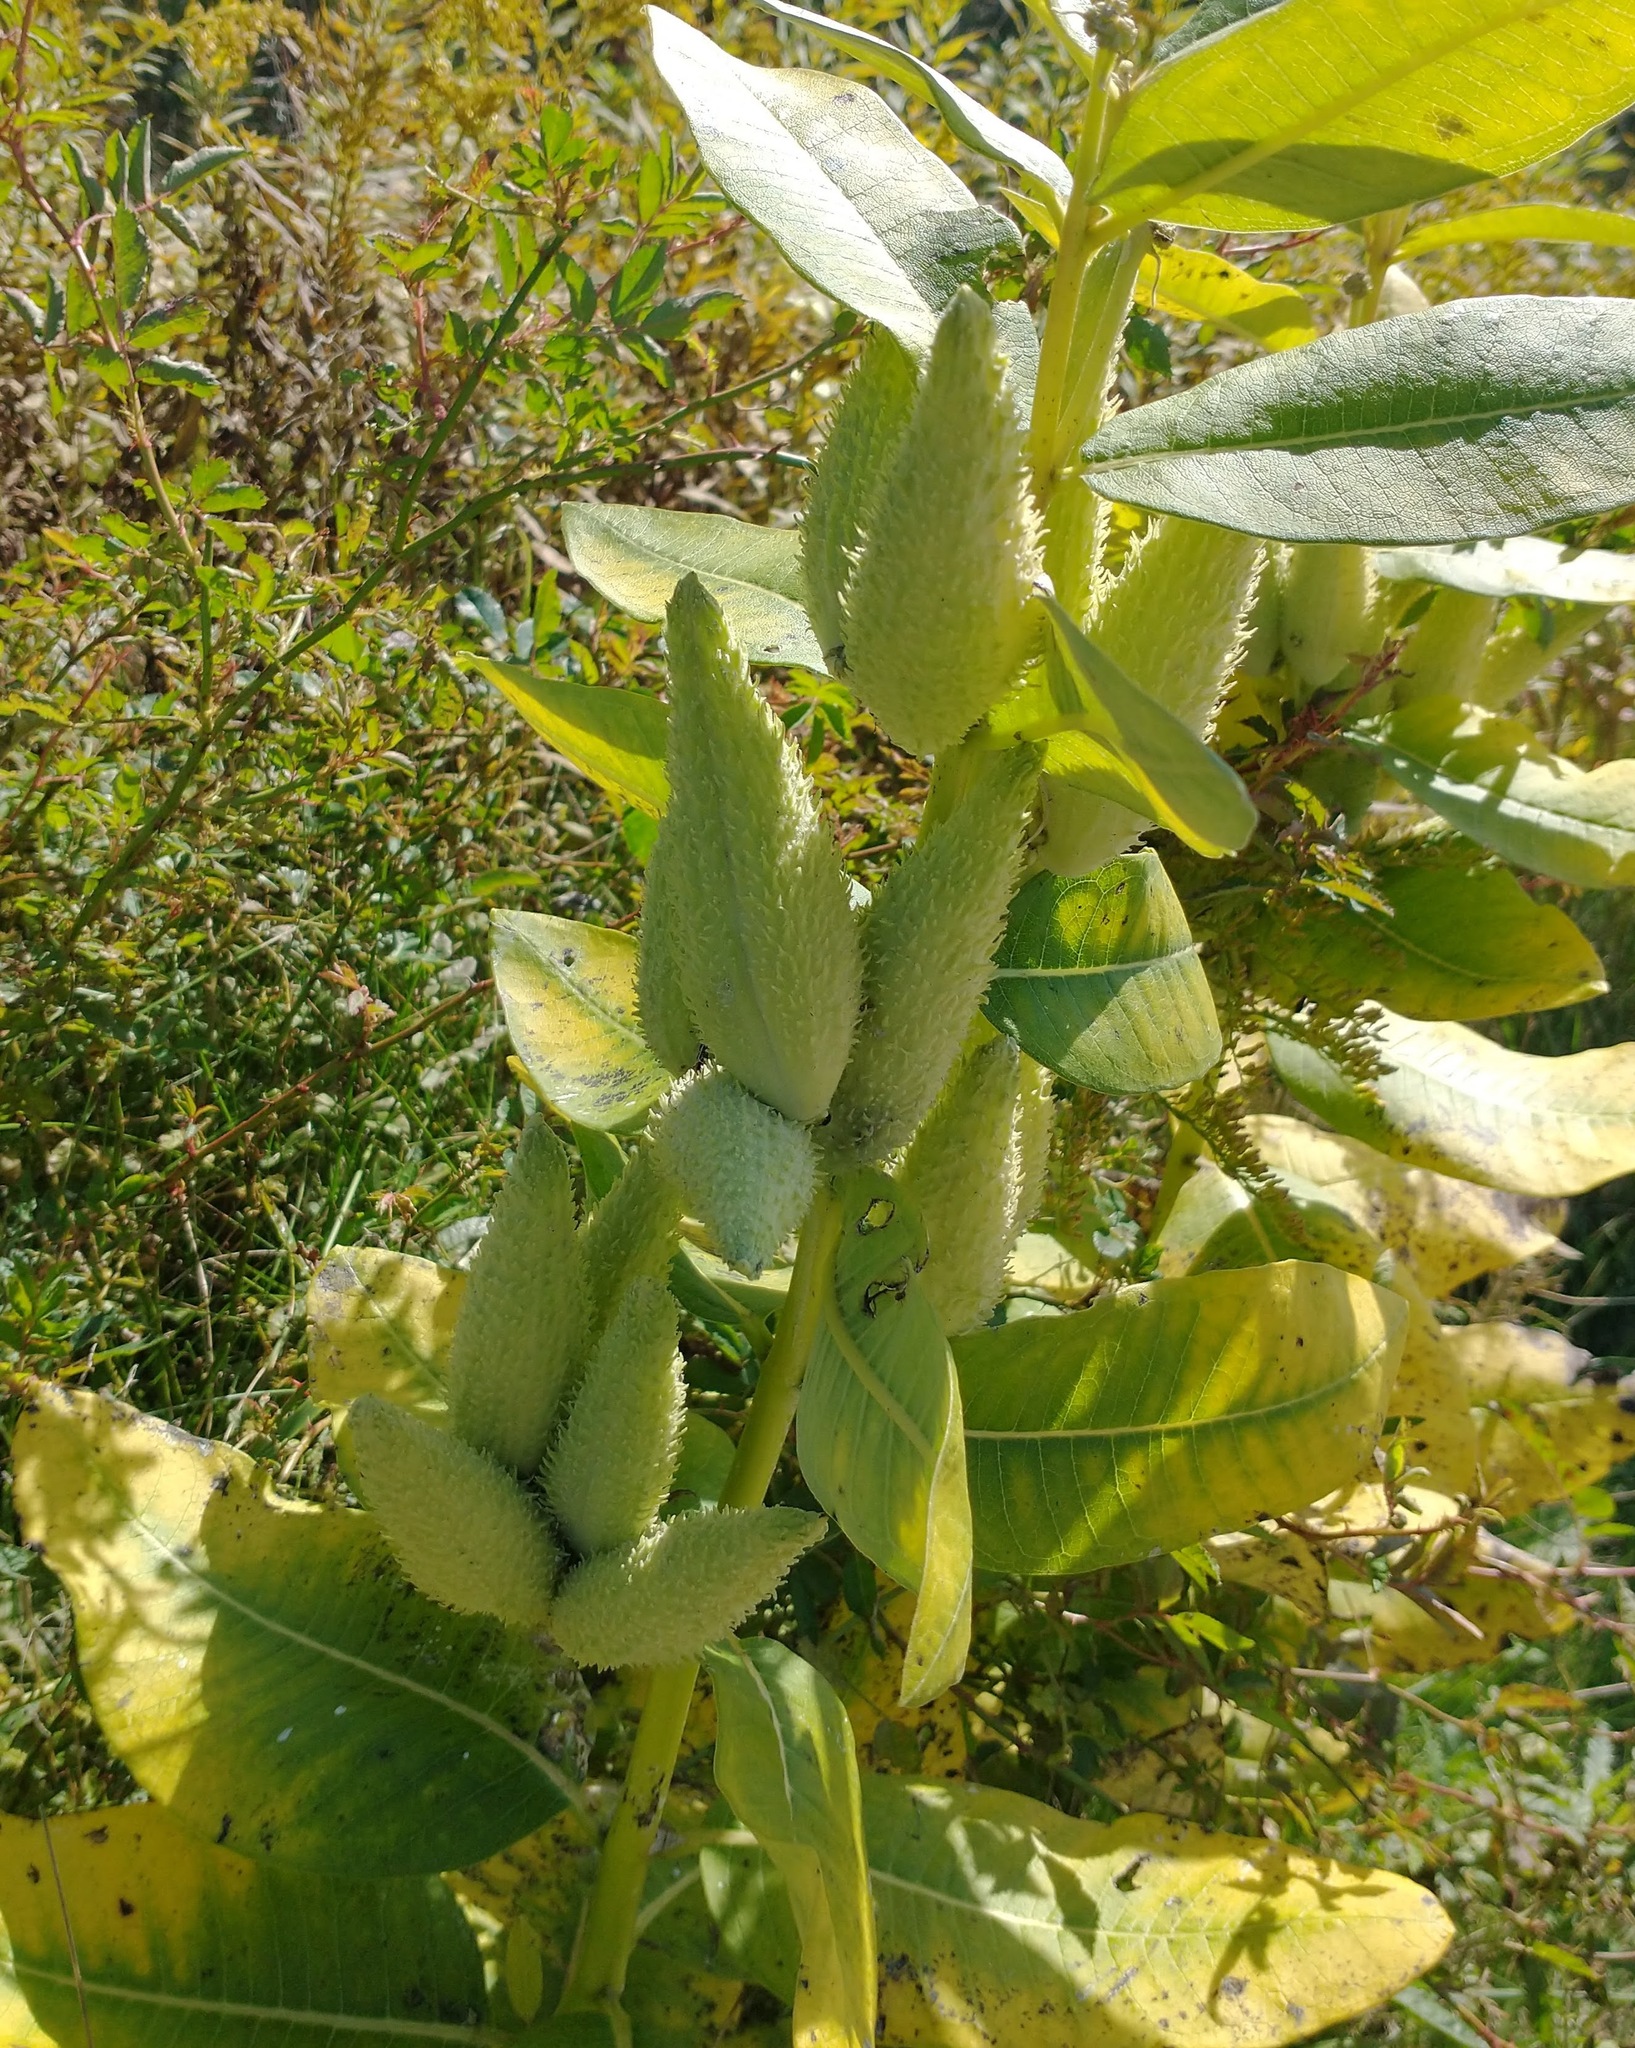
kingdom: Plantae
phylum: Tracheophyta
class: Magnoliopsida
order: Gentianales
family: Apocynaceae
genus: Asclepias
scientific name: Asclepias syriaca
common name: Common milkweed
